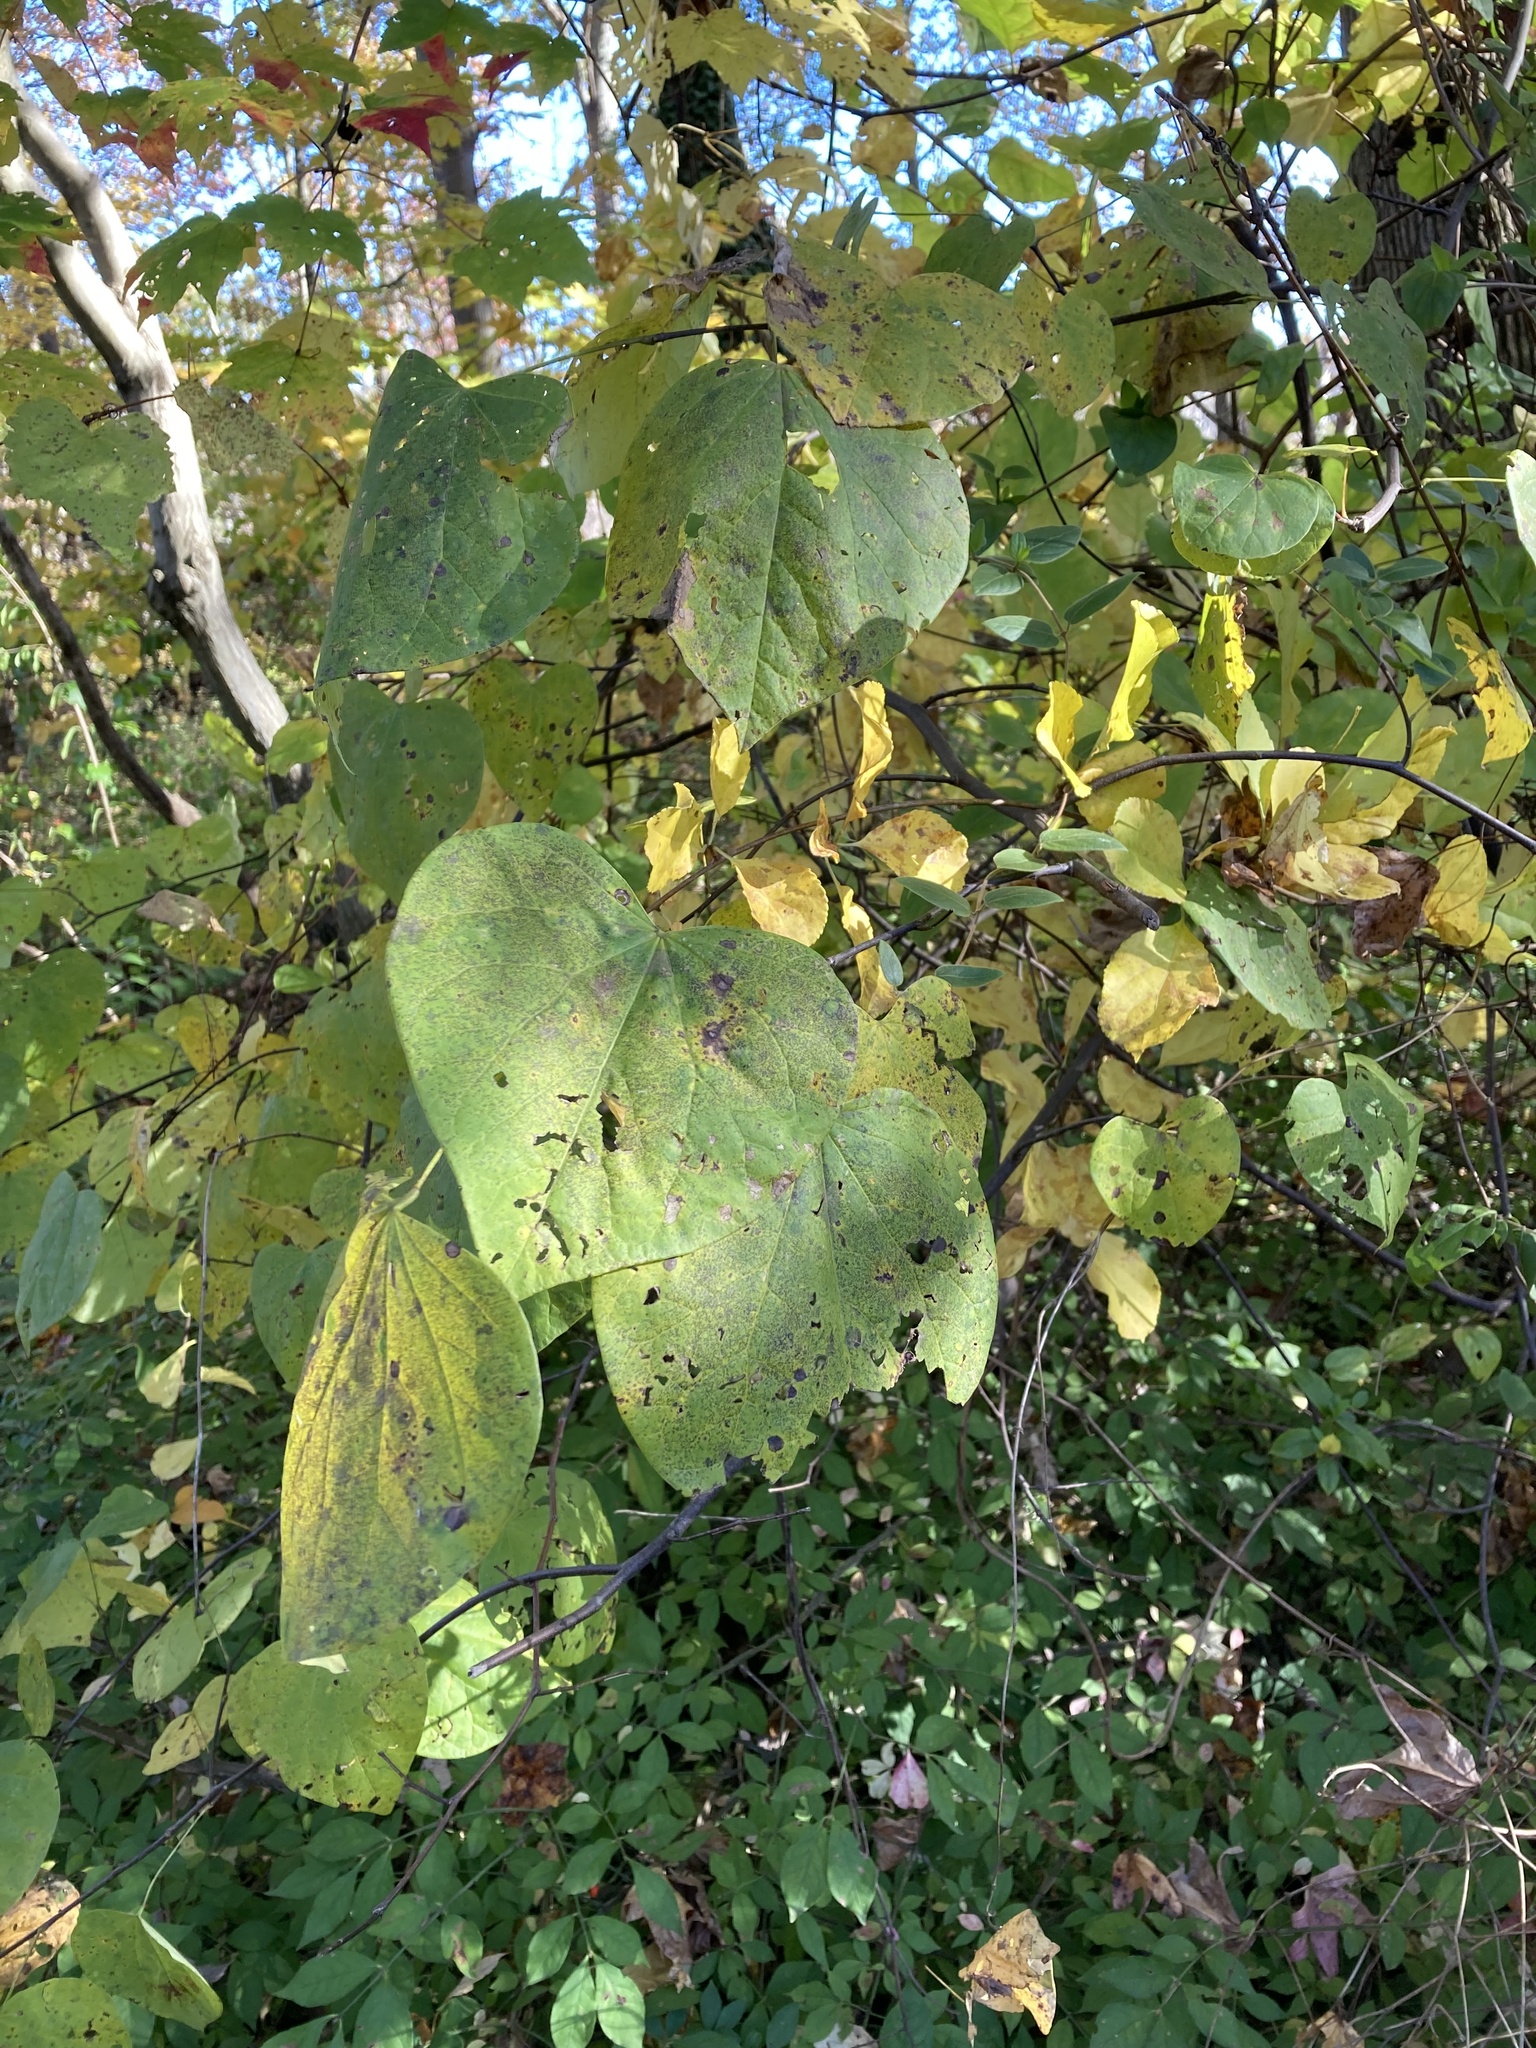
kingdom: Plantae
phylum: Tracheophyta
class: Magnoliopsida
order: Fabales
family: Fabaceae
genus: Cercis
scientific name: Cercis canadensis
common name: Eastern redbud
